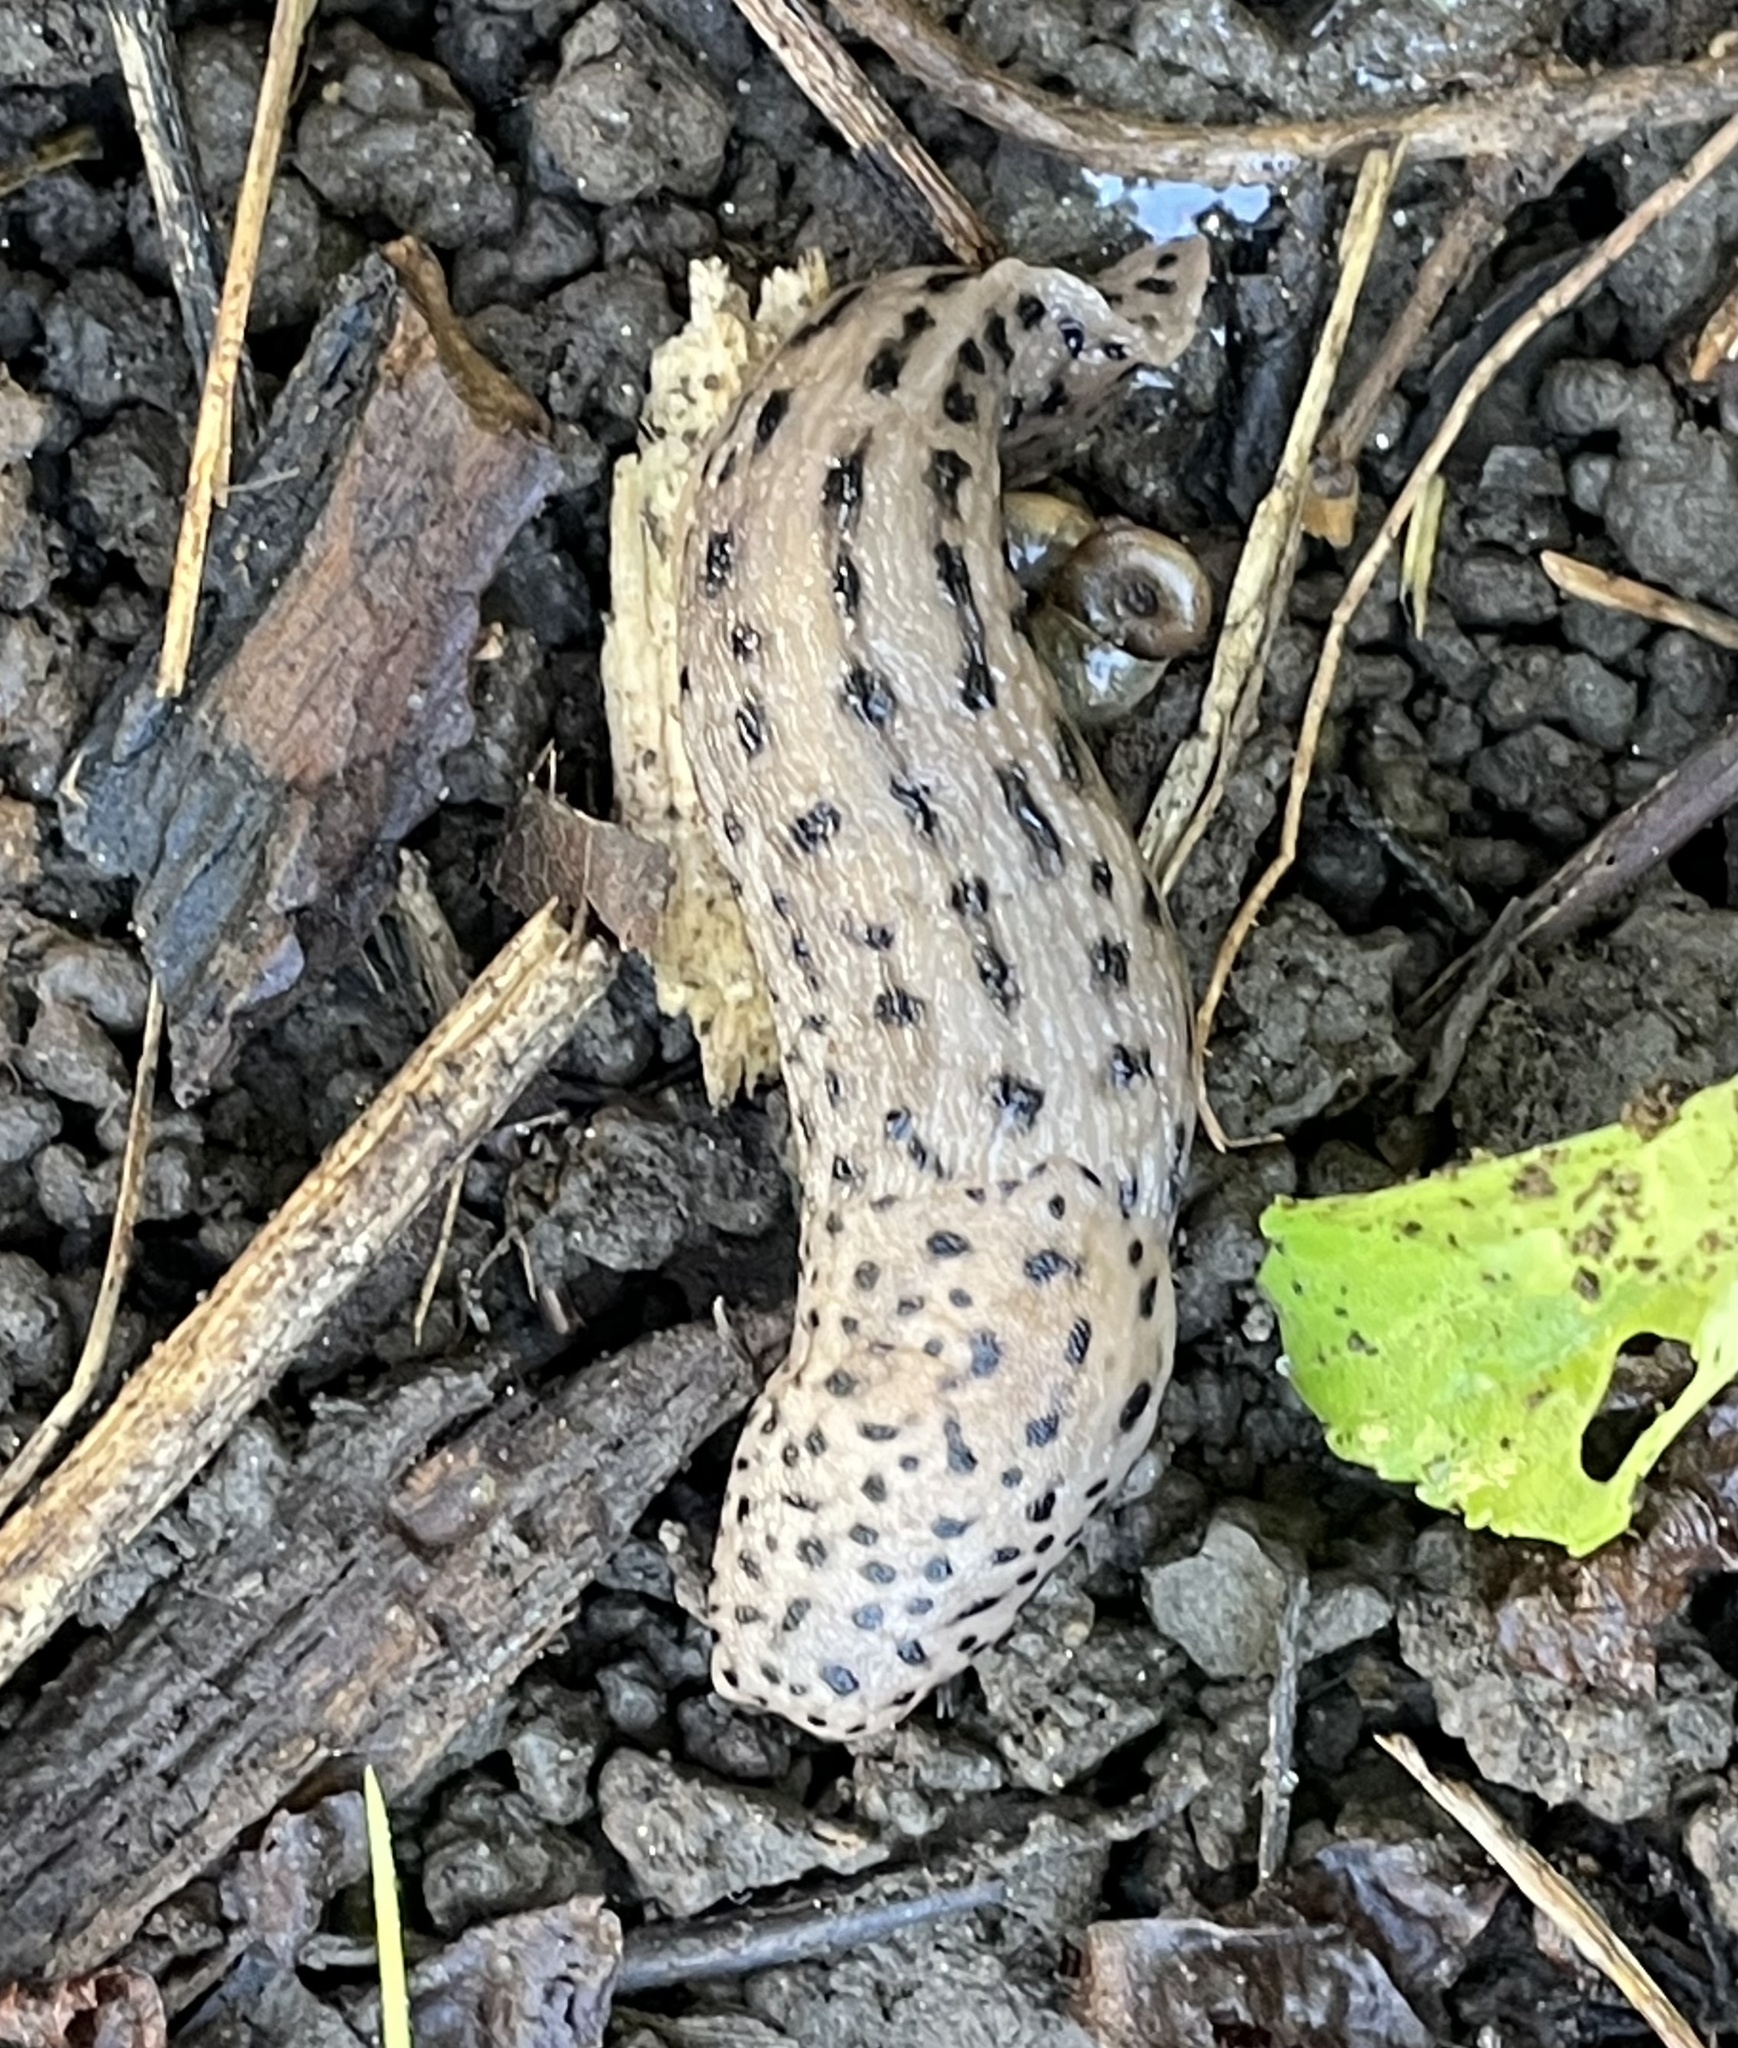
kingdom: Animalia
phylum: Mollusca
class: Gastropoda
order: Stylommatophora
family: Limacidae
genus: Limax
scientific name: Limax maximus
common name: Great grey slug
